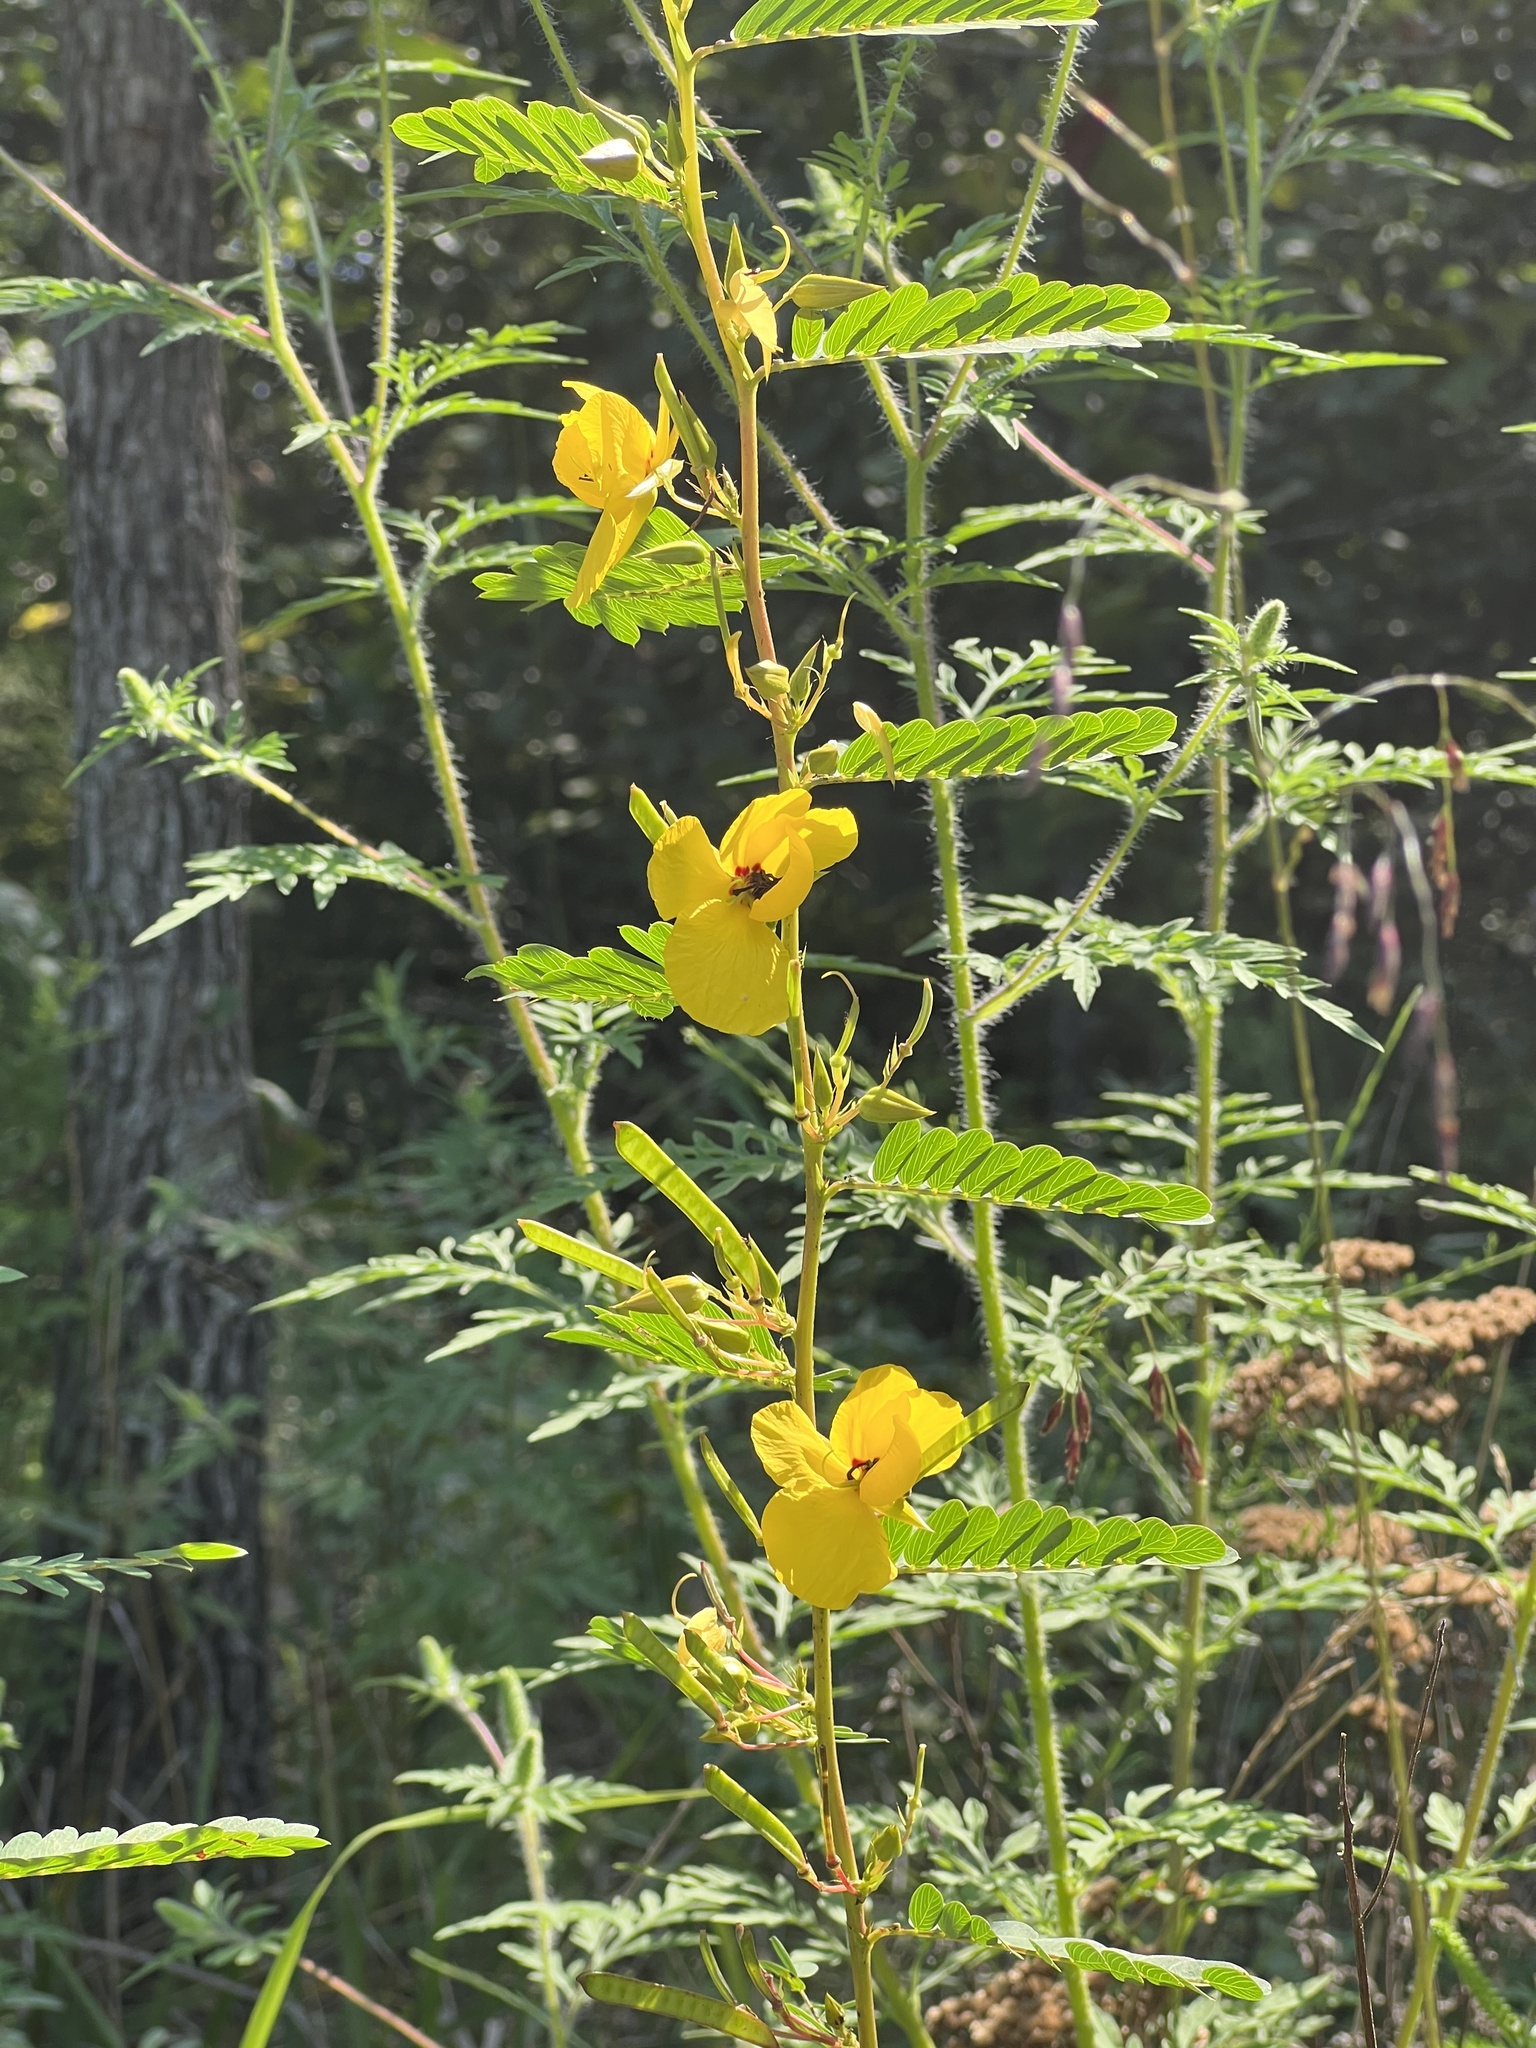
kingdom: Plantae
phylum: Tracheophyta
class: Magnoliopsida
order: Fabales
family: Fabaceae
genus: Chamaecrista
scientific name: Chamaecrista fasciculata
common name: Golden cassia
